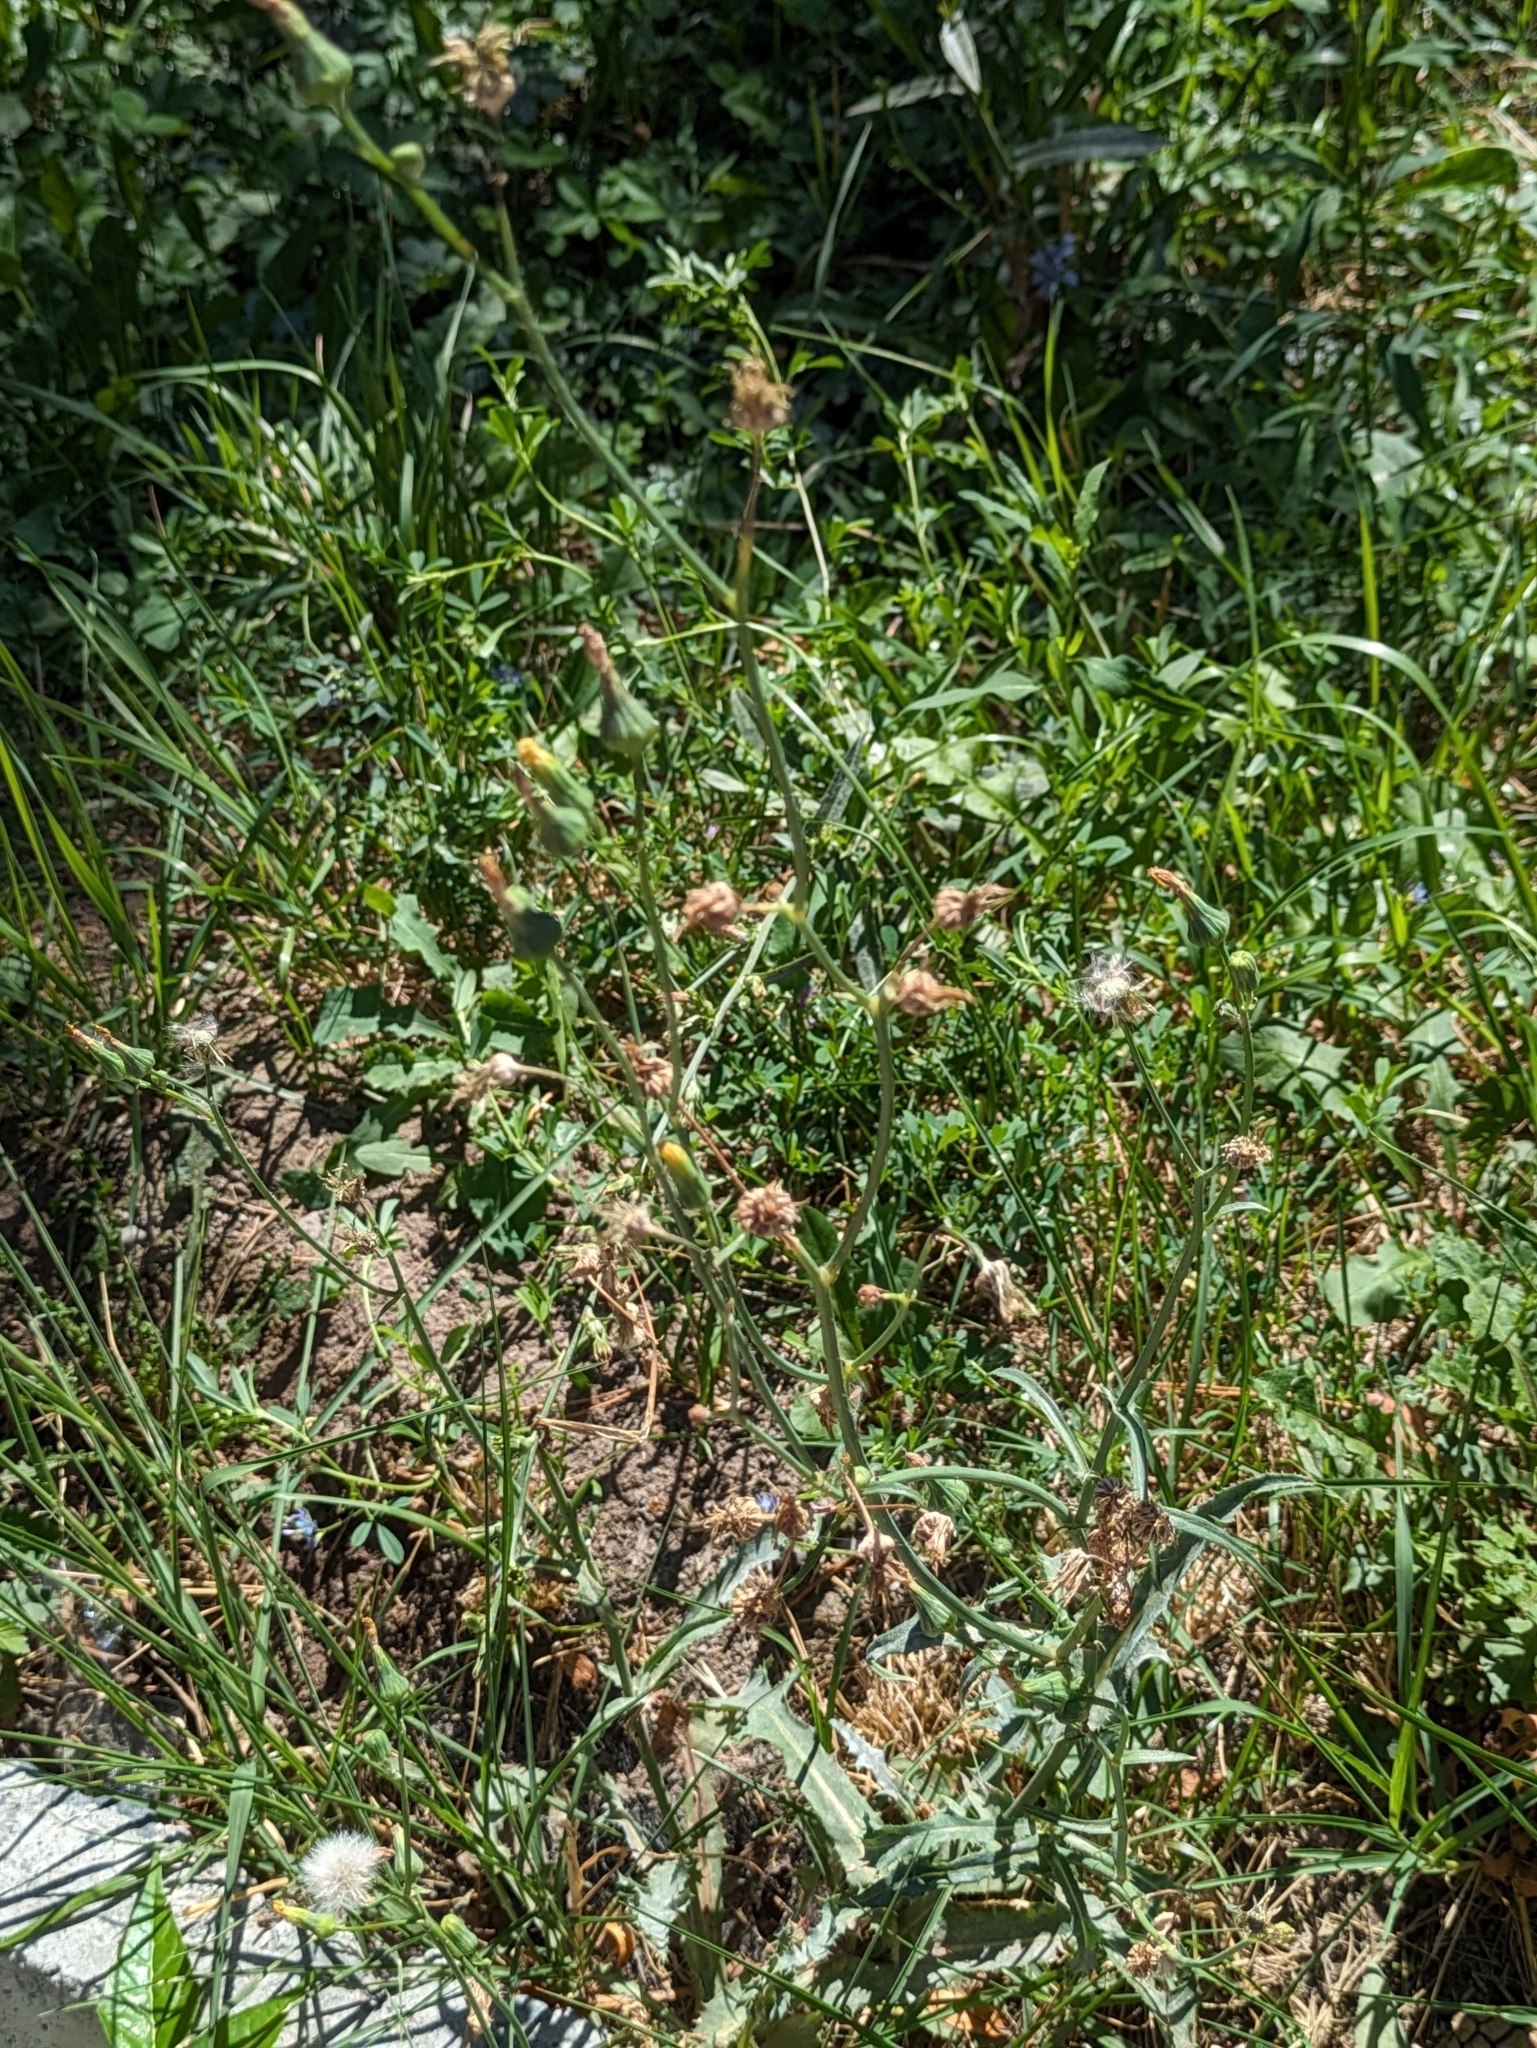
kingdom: Plantae
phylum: Tracheophyta
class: Magnoliopsida
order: Asterales
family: Asteraceae
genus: Sonchus
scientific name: Sonchus oleraceus
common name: Common sowthistle
